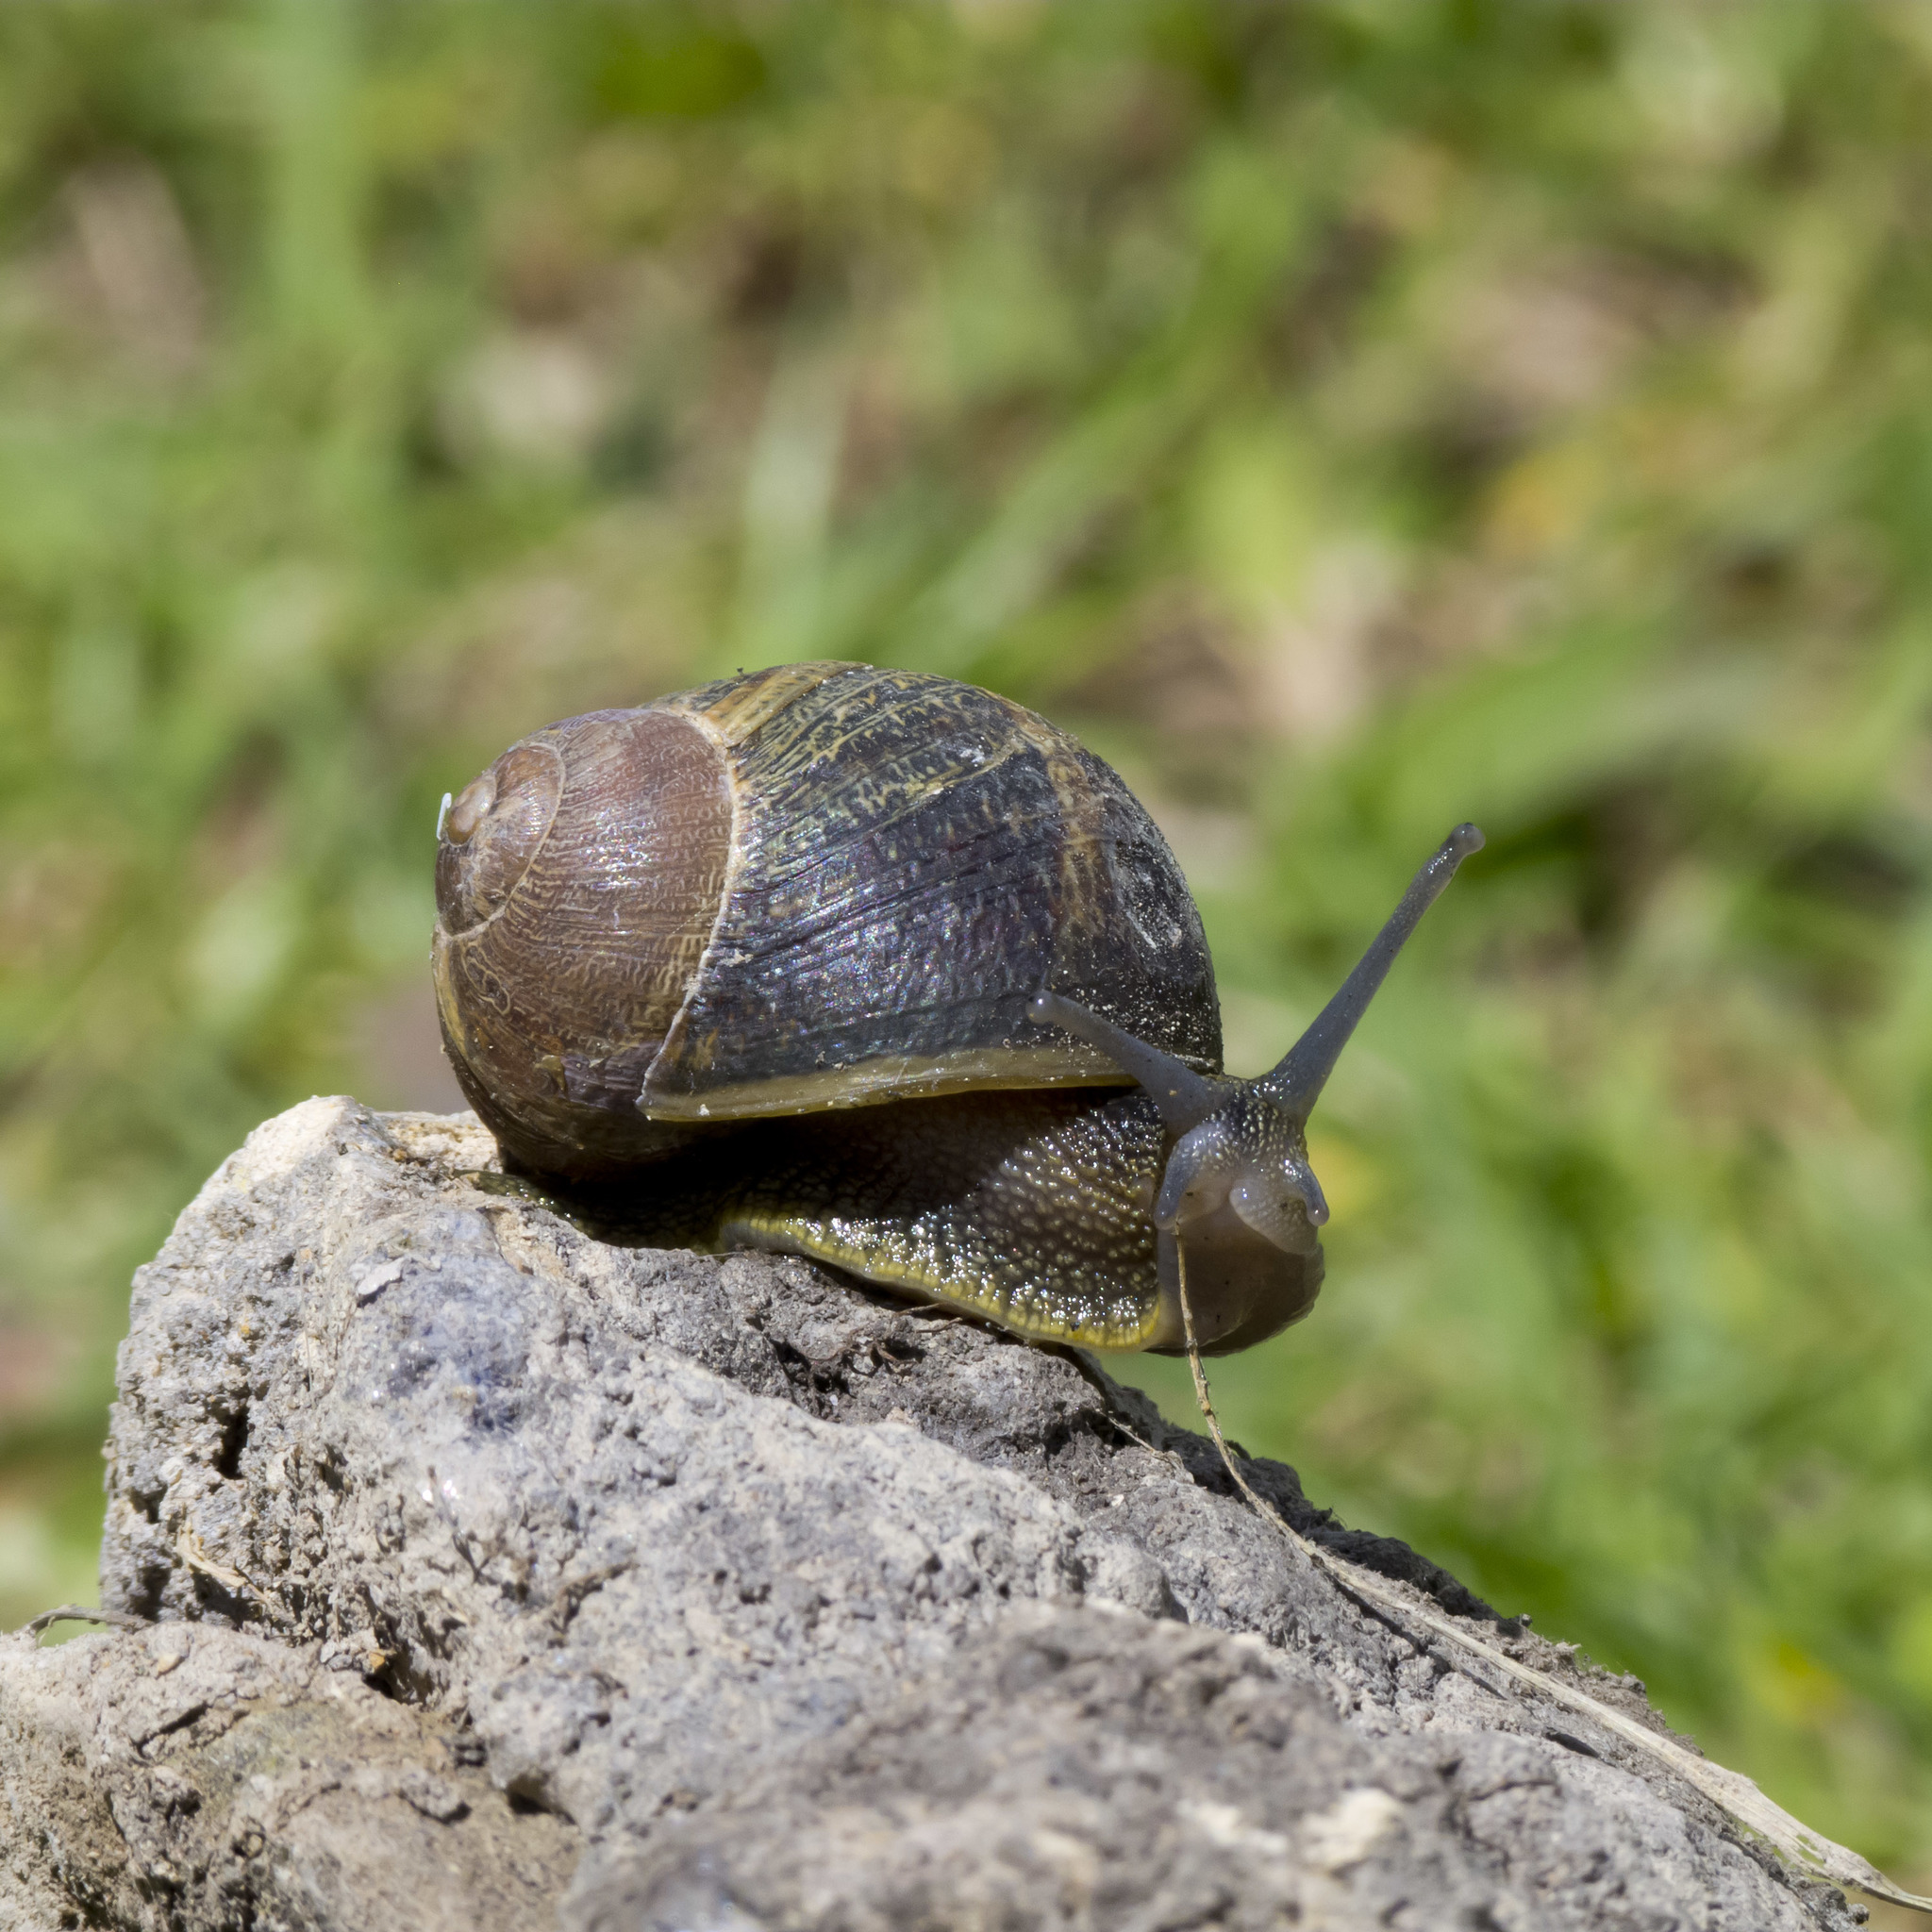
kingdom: Animalia
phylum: Mollusca
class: Gastropoda
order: Stylommatophora
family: Helicidae
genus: Cornu
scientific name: Cornu aspersum
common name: Brown garden snail
